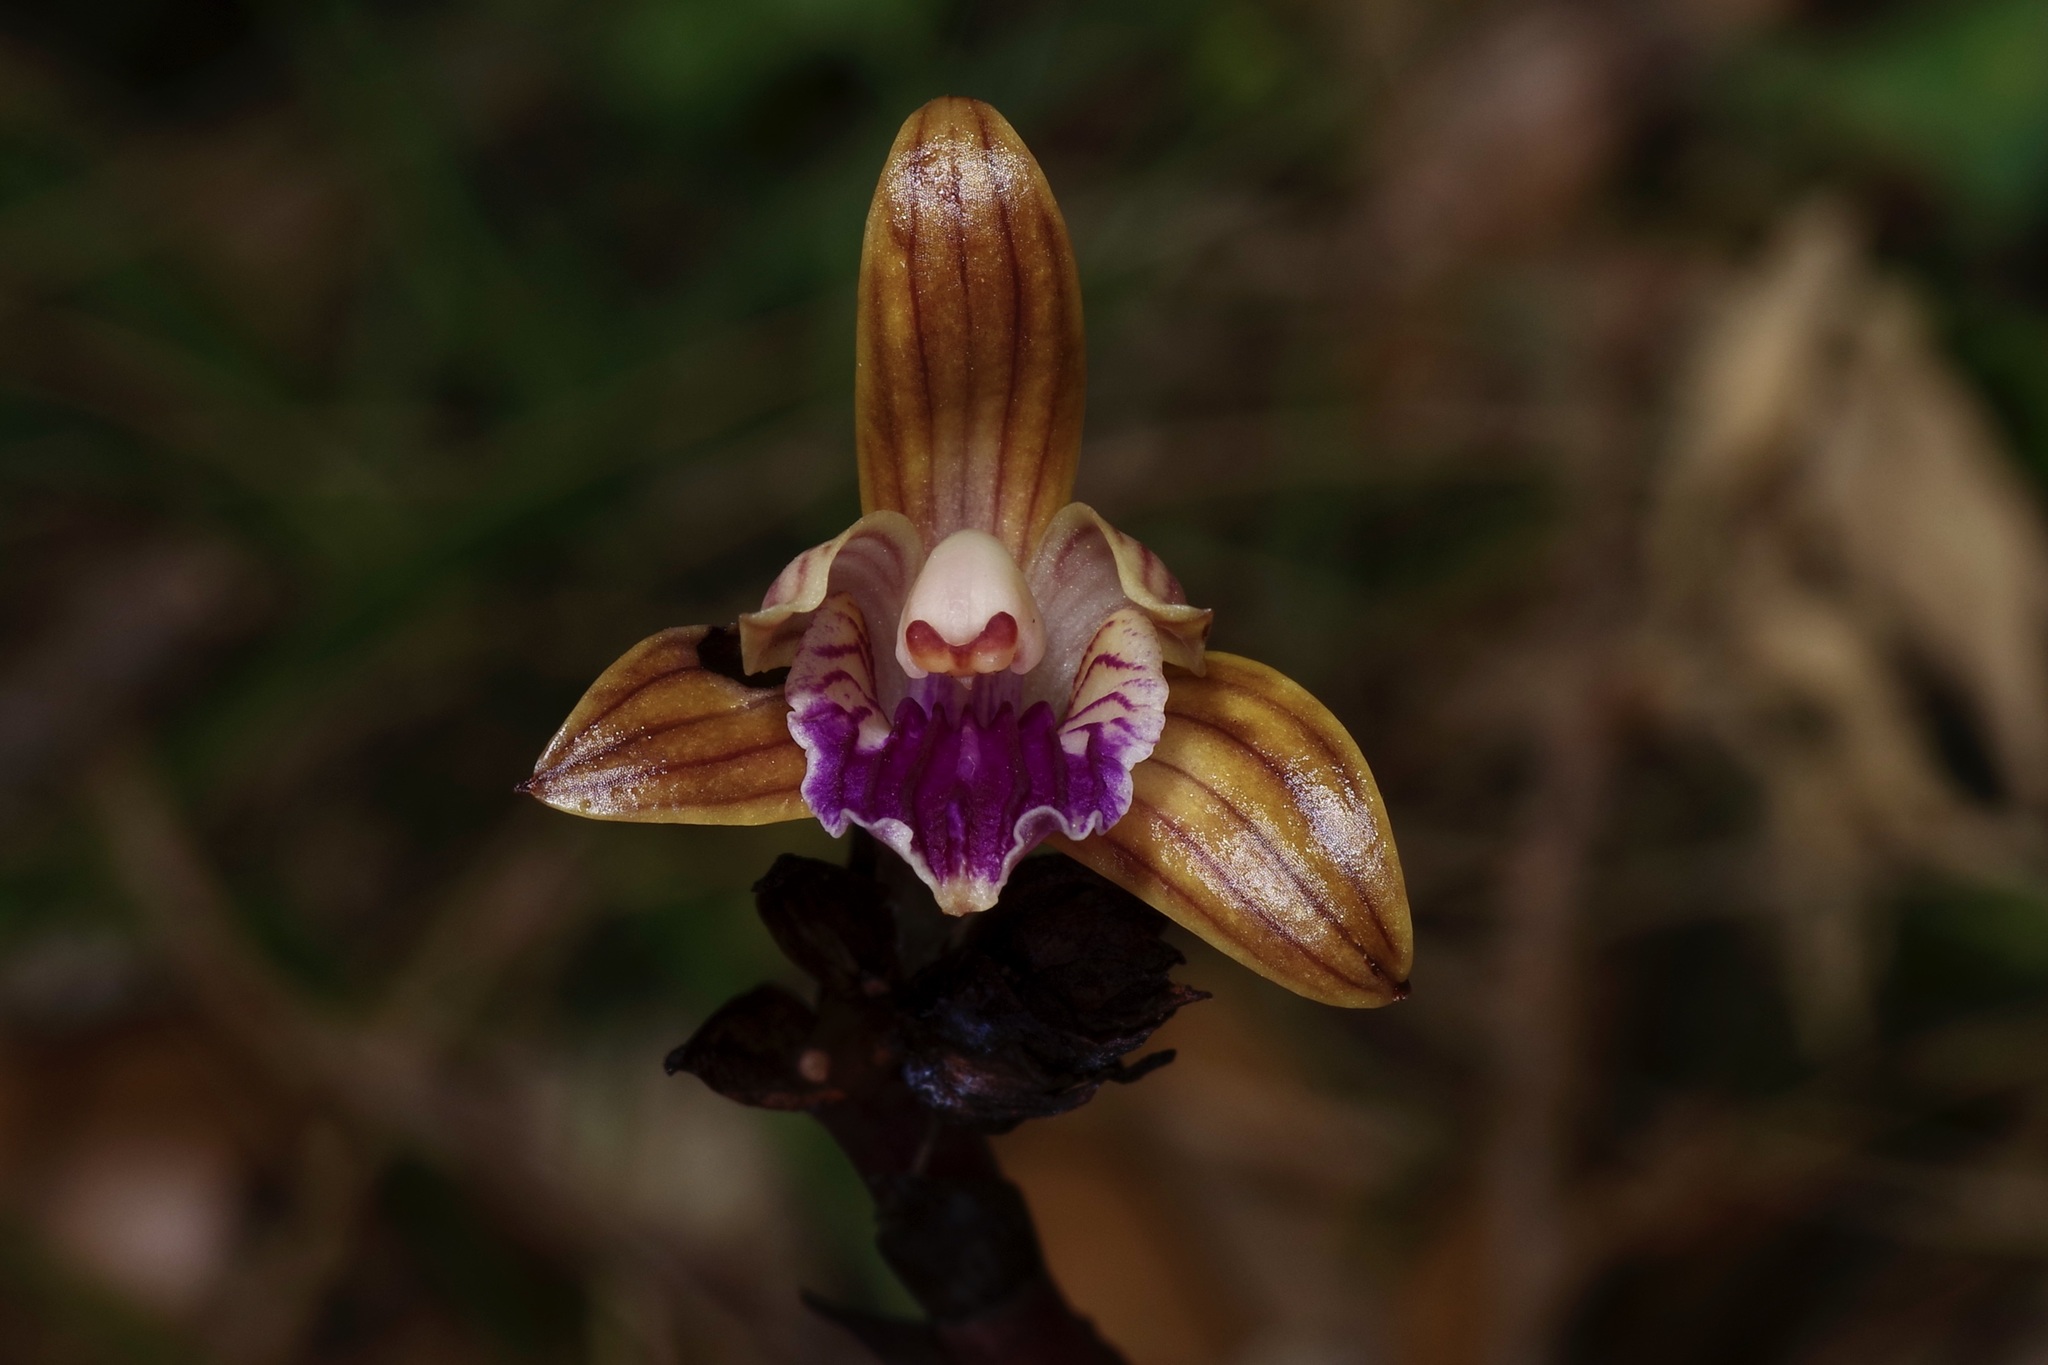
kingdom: Plantae
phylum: Tracheophyta
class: Liliopsida
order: Asparagales
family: Orchidaceae
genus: Bletia
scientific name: Bletia spicata
